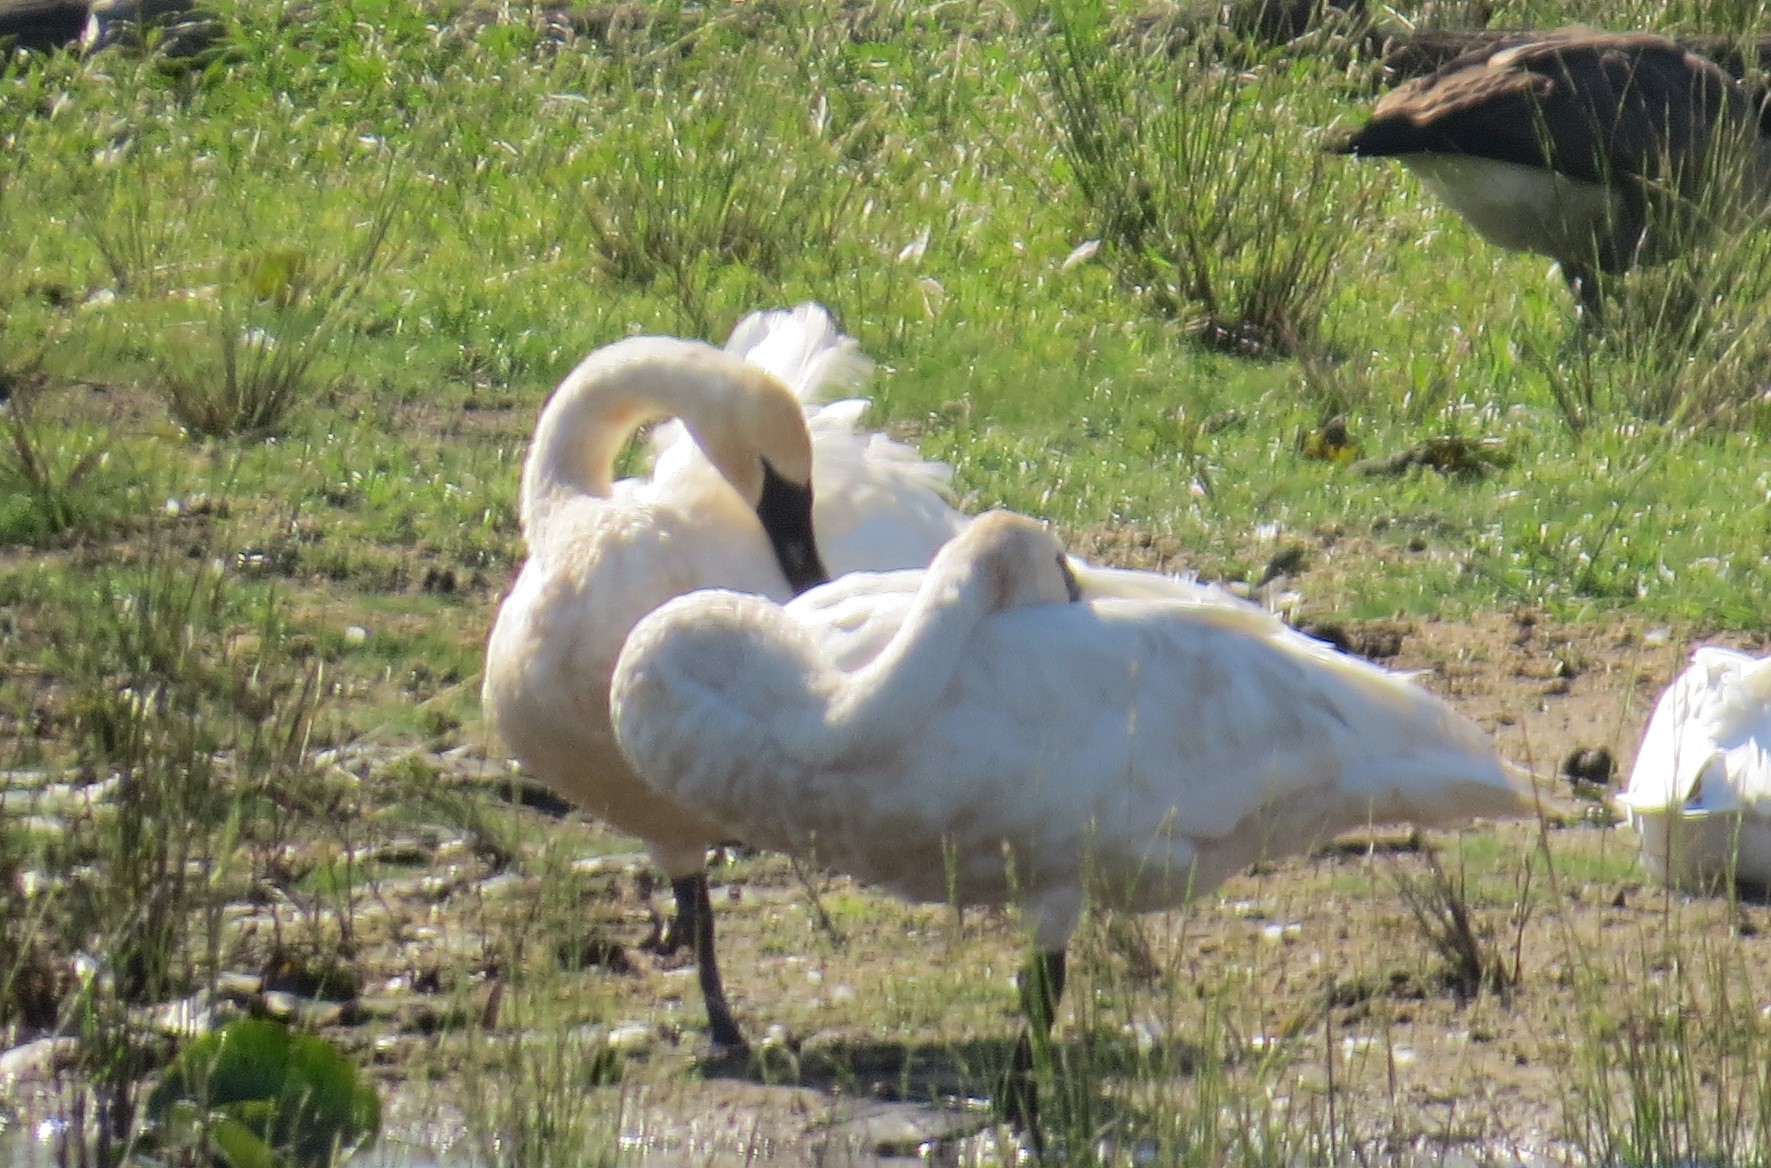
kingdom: Animalia
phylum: Chordata
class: Aves
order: Anseriformes
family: Anatidae
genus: Cygnus
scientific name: Cygnus buccinator
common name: Trumpeter swan
